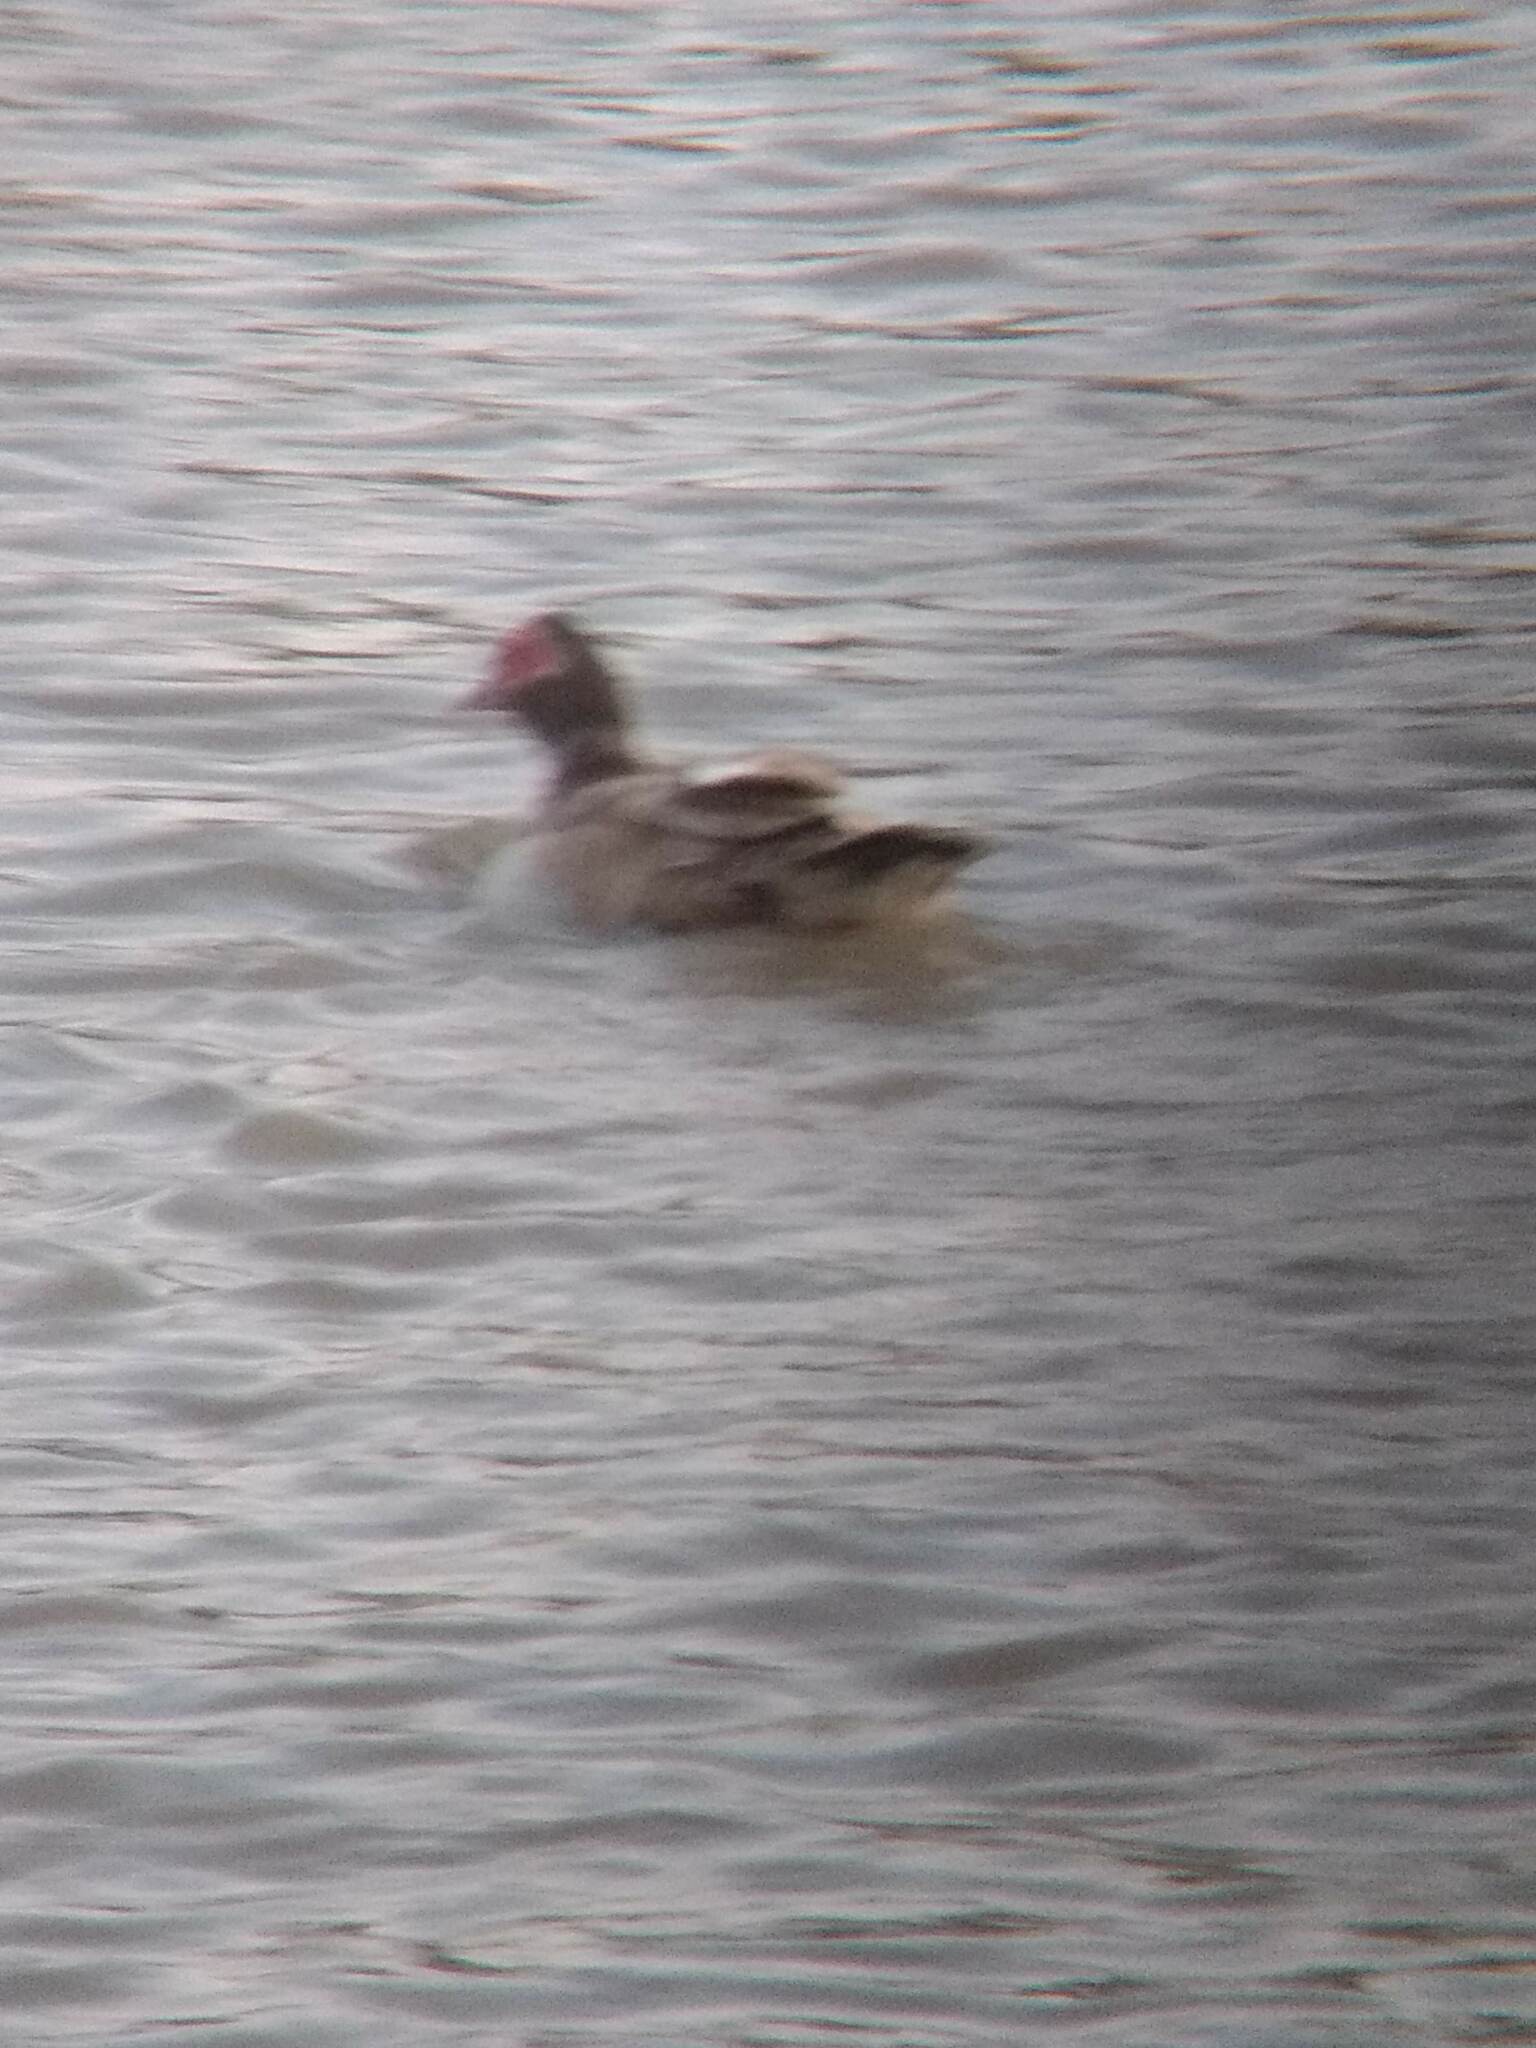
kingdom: Animalia
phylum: Chordata
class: Aves
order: Anseriformes
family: Anatidae
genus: Cairina
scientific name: Cairina moschata
